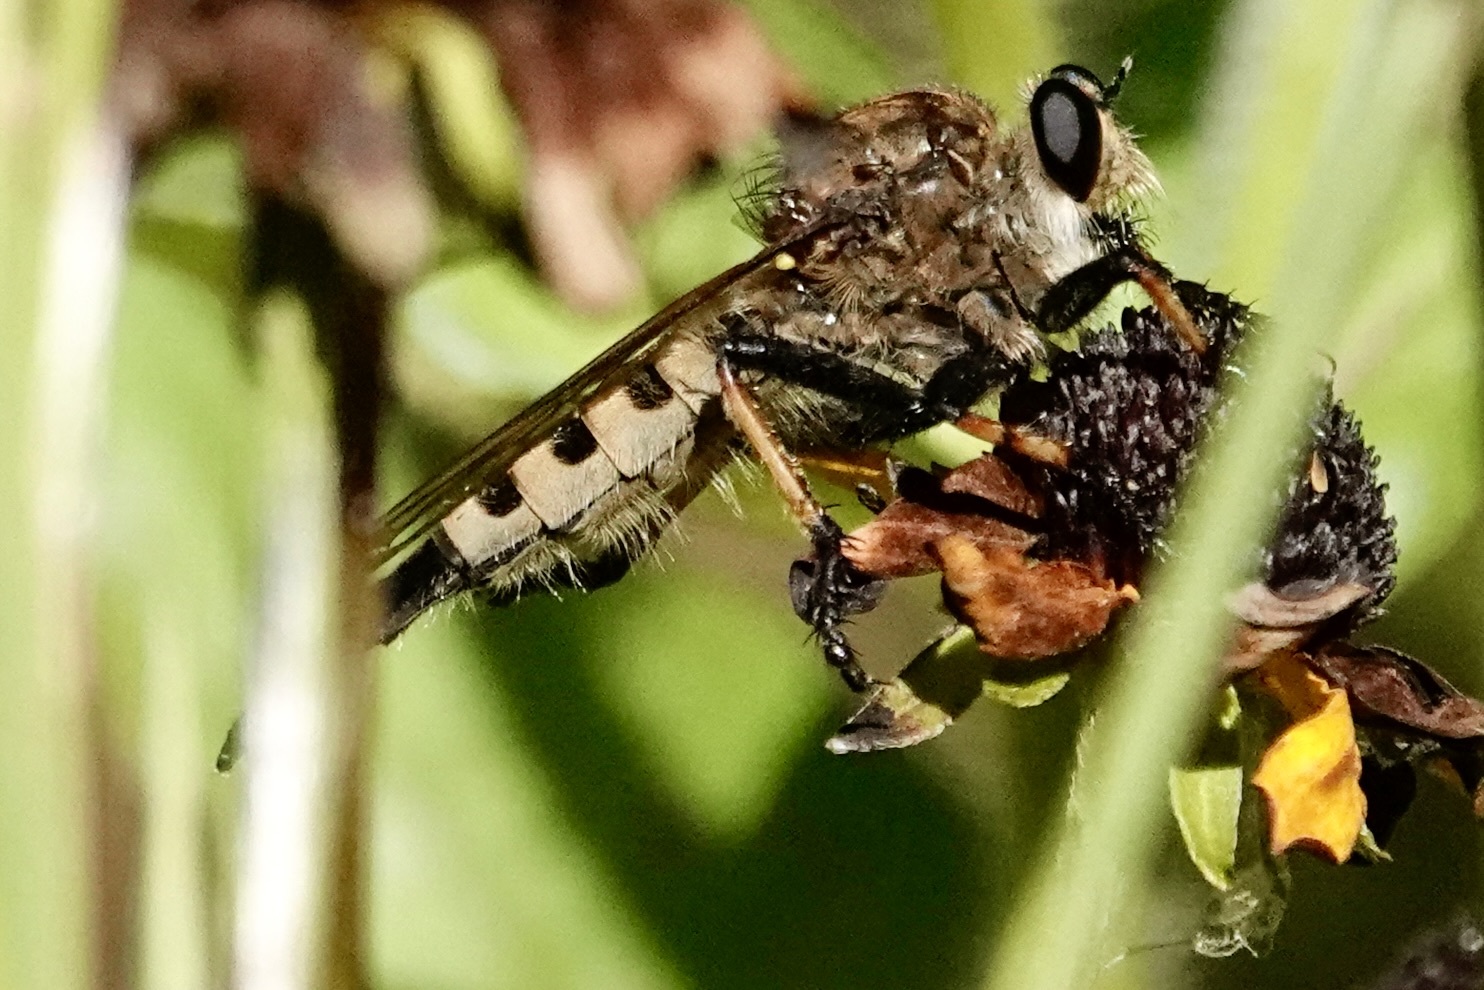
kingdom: Animalia
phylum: Arthropoda
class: Insecta
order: Diptera
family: Asilidae
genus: Promachus
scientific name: Promachus rufipes
